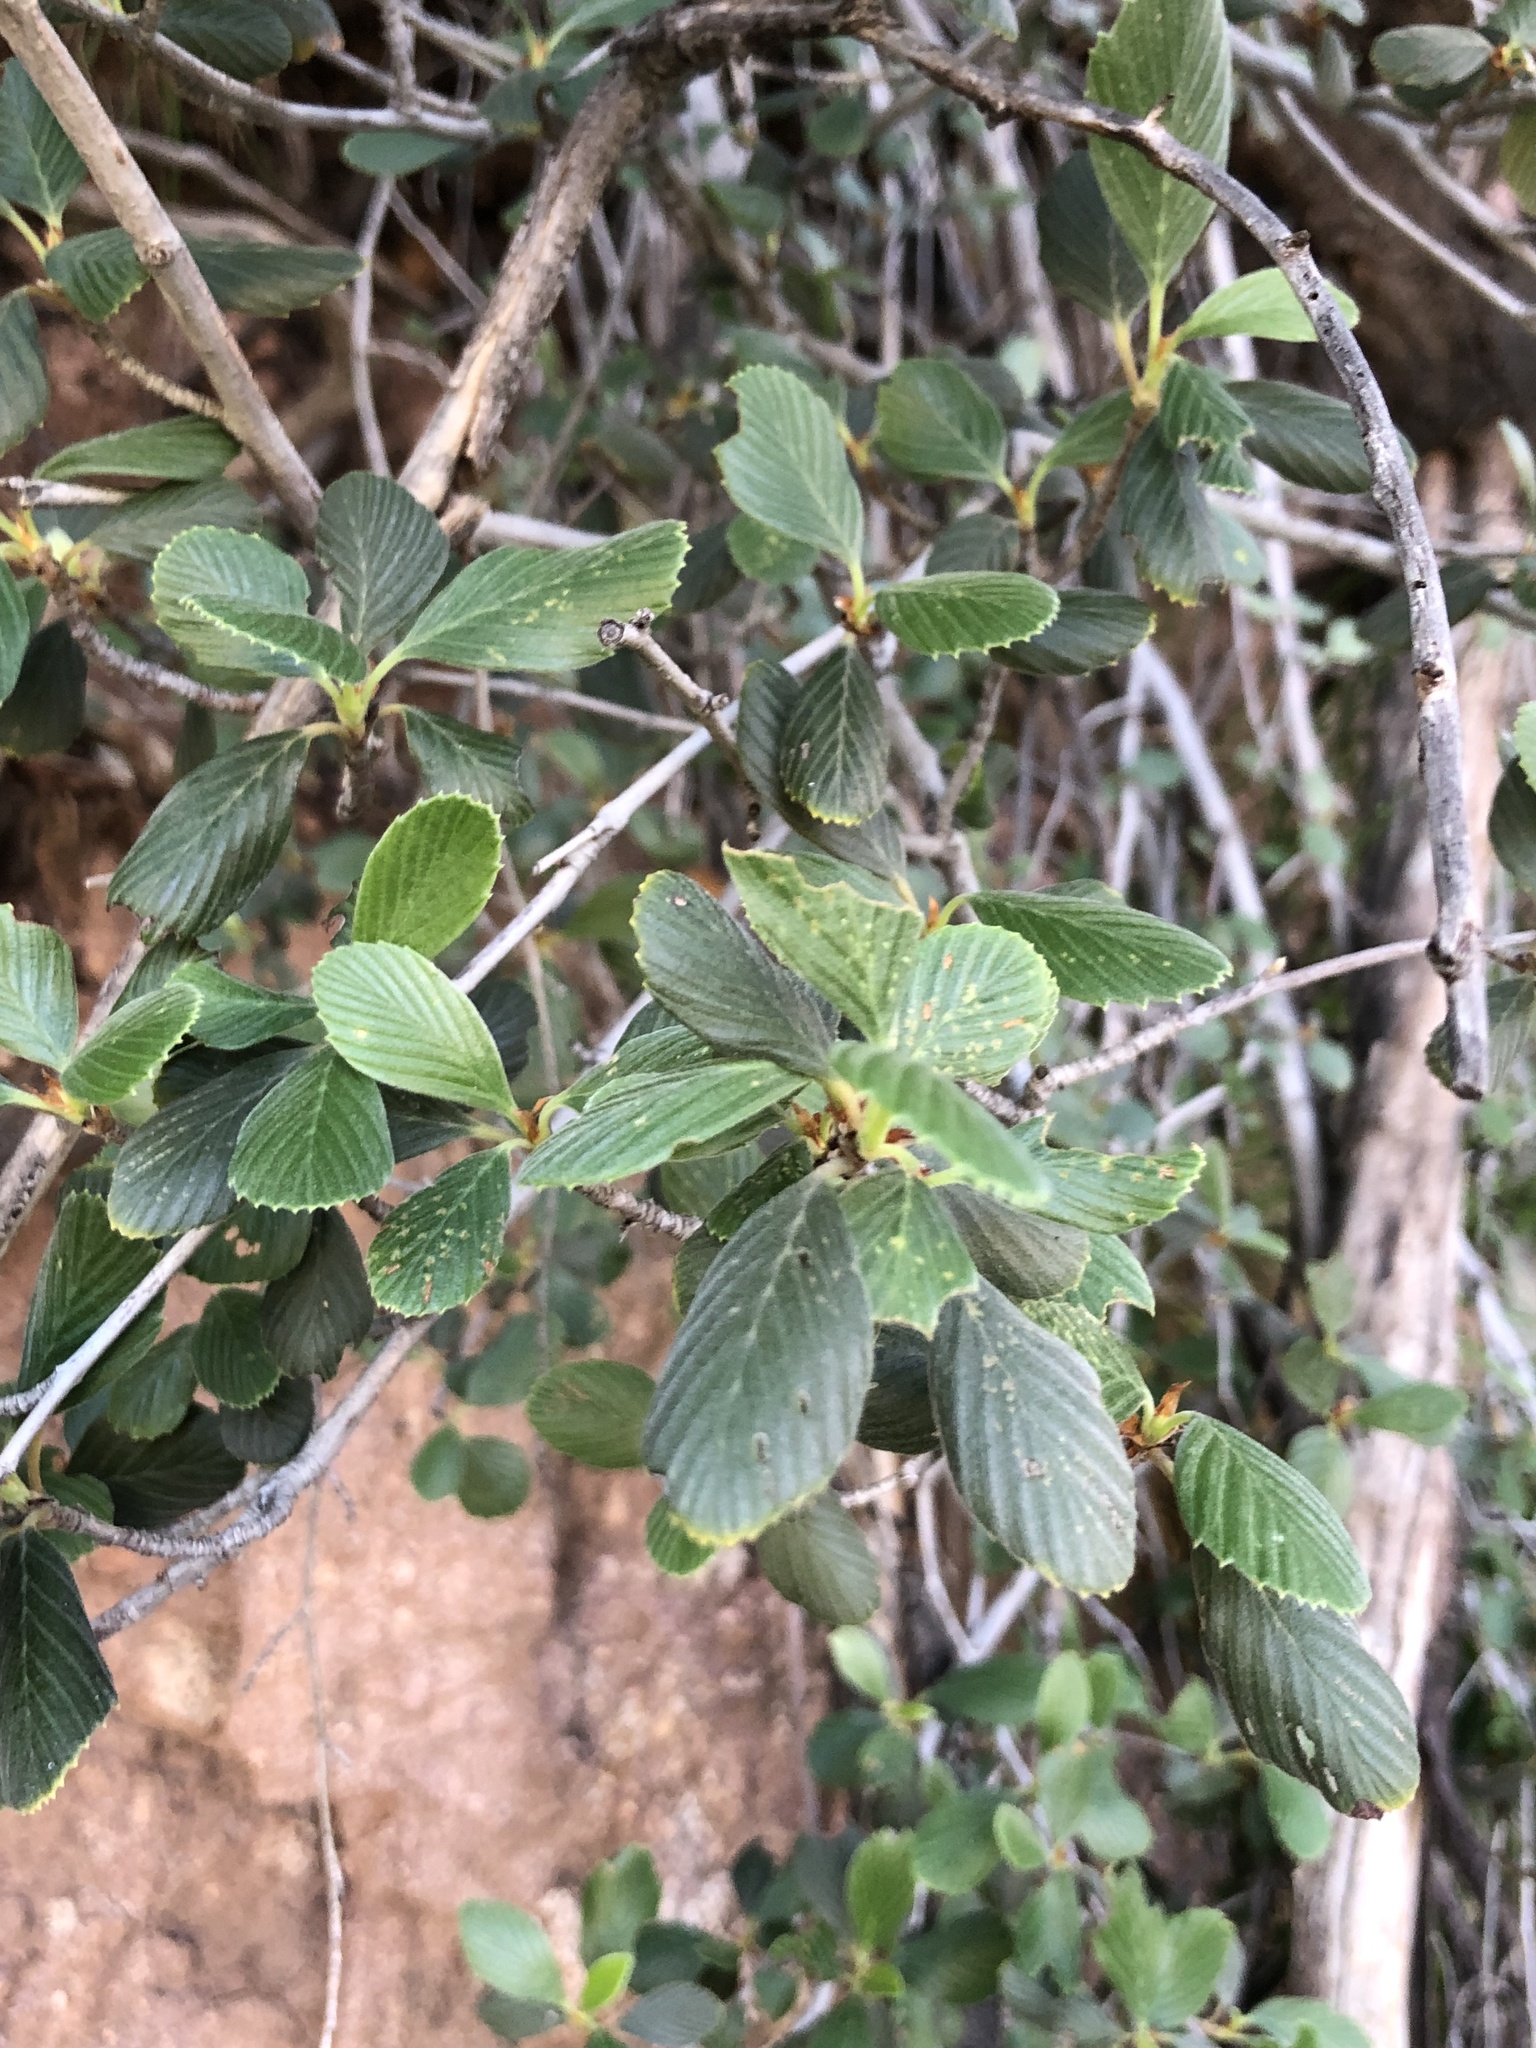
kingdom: Plantae
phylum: Tracheophyta
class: Magnoliopsida
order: Rosales
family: Rosaceae
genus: Cercocarpus
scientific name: Cercocarpus betuloides
